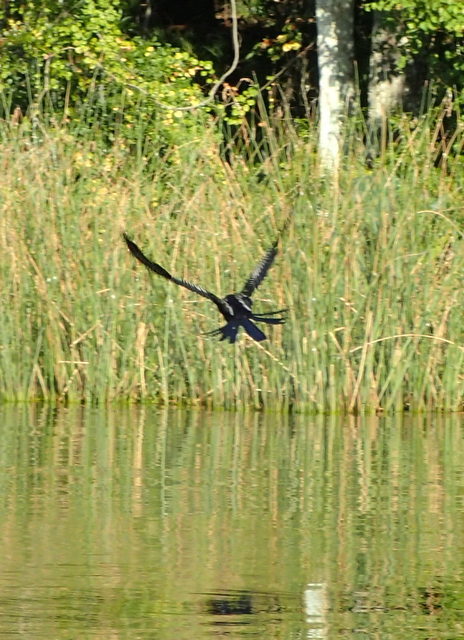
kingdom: Animalia
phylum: Chordata
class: Aves
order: Suliformes
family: Anhingidae
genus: Anhinga
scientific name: Anhinga anhinga
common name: Anhinga
